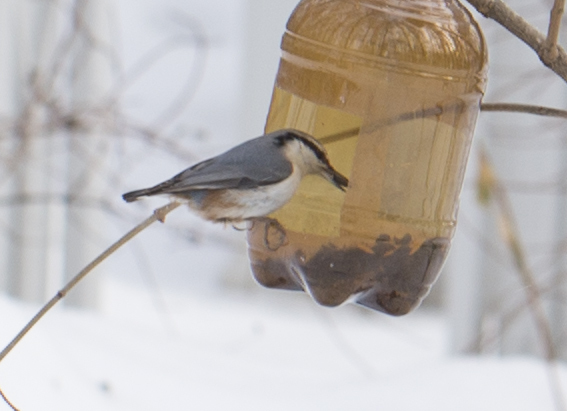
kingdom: Animalia
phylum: Chordata
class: Aves
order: Passeriformes
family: Sittidae
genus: Sitta
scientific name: Sitta europaea
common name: Eurasian nuthatch
